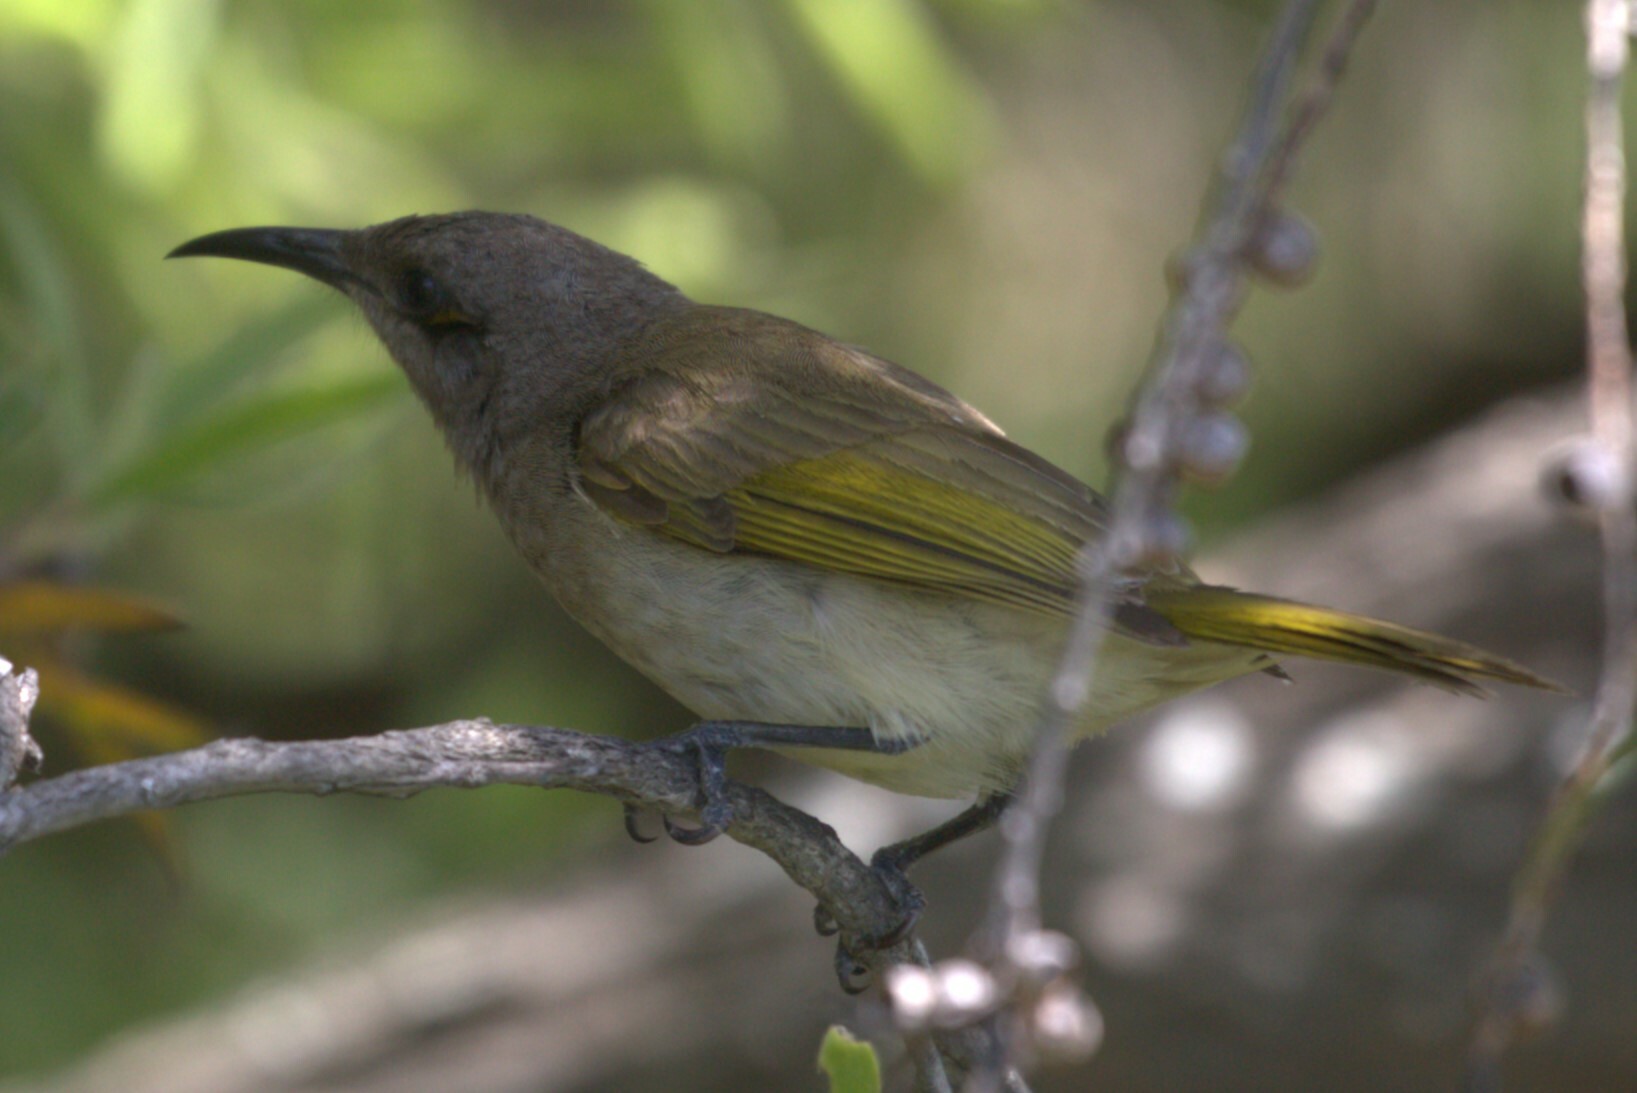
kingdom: Animalia
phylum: Chordata
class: Aves
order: Passeriformes
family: Meliphagidae
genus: Lichmera
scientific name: Lichmera indistincta
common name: Brown honeyeater
